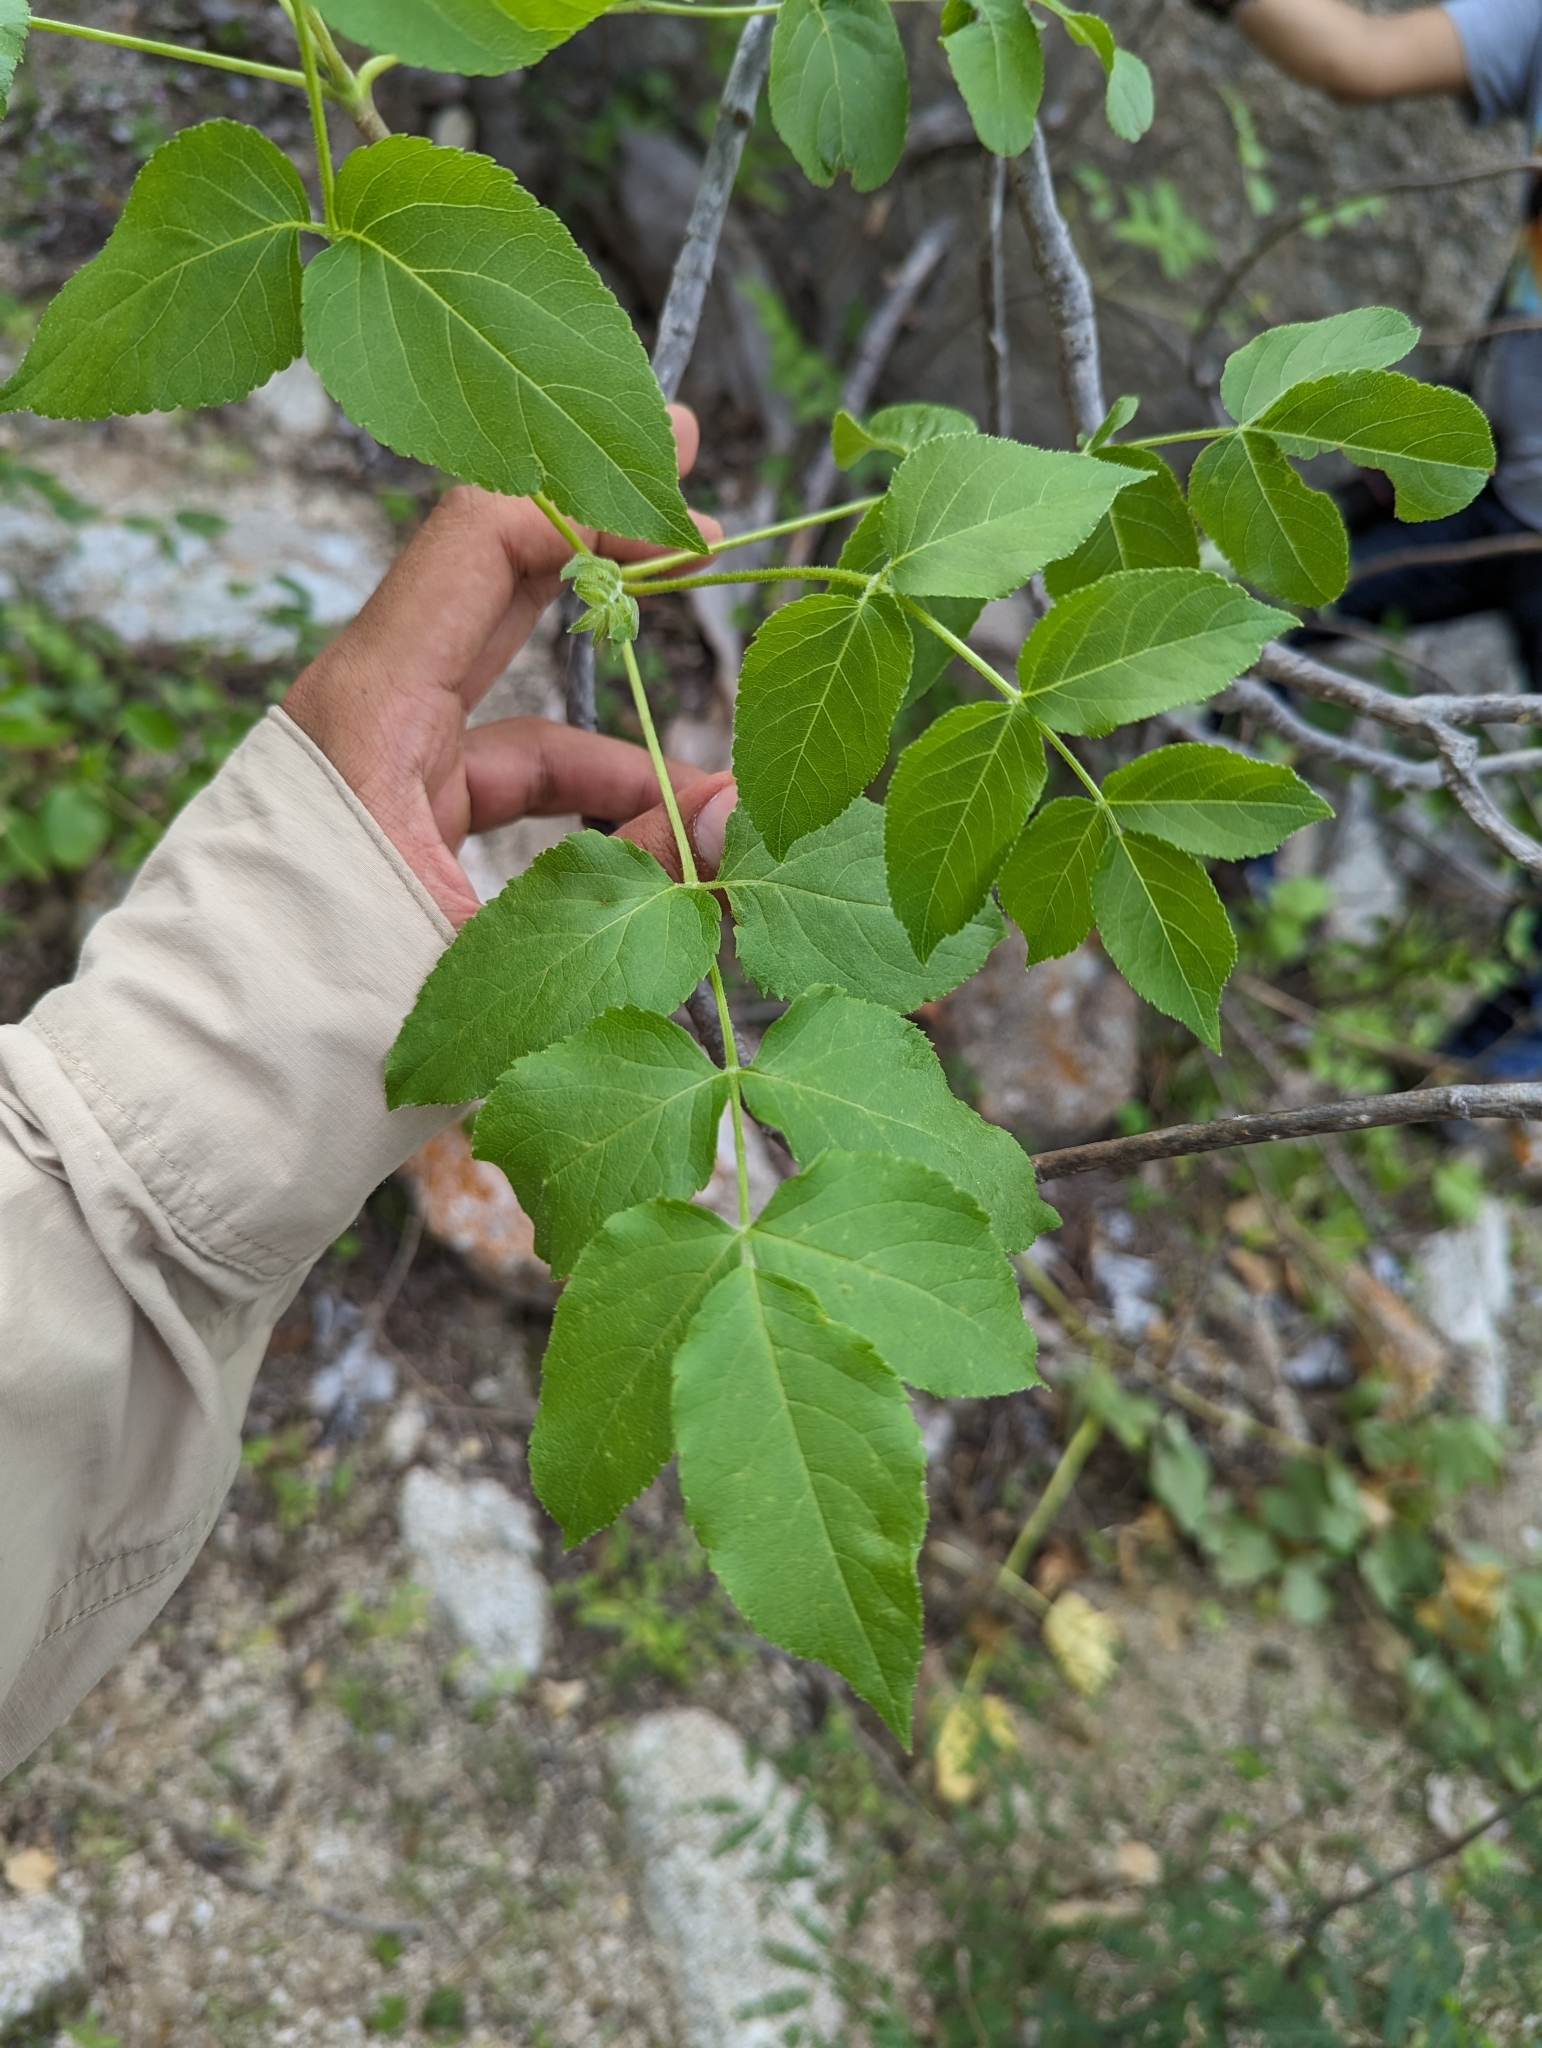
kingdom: Plantae
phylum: Tracheophyta
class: Magnoliopsida
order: Apiales
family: Araliaceae
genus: Aralia
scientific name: Aralia scopulorum
